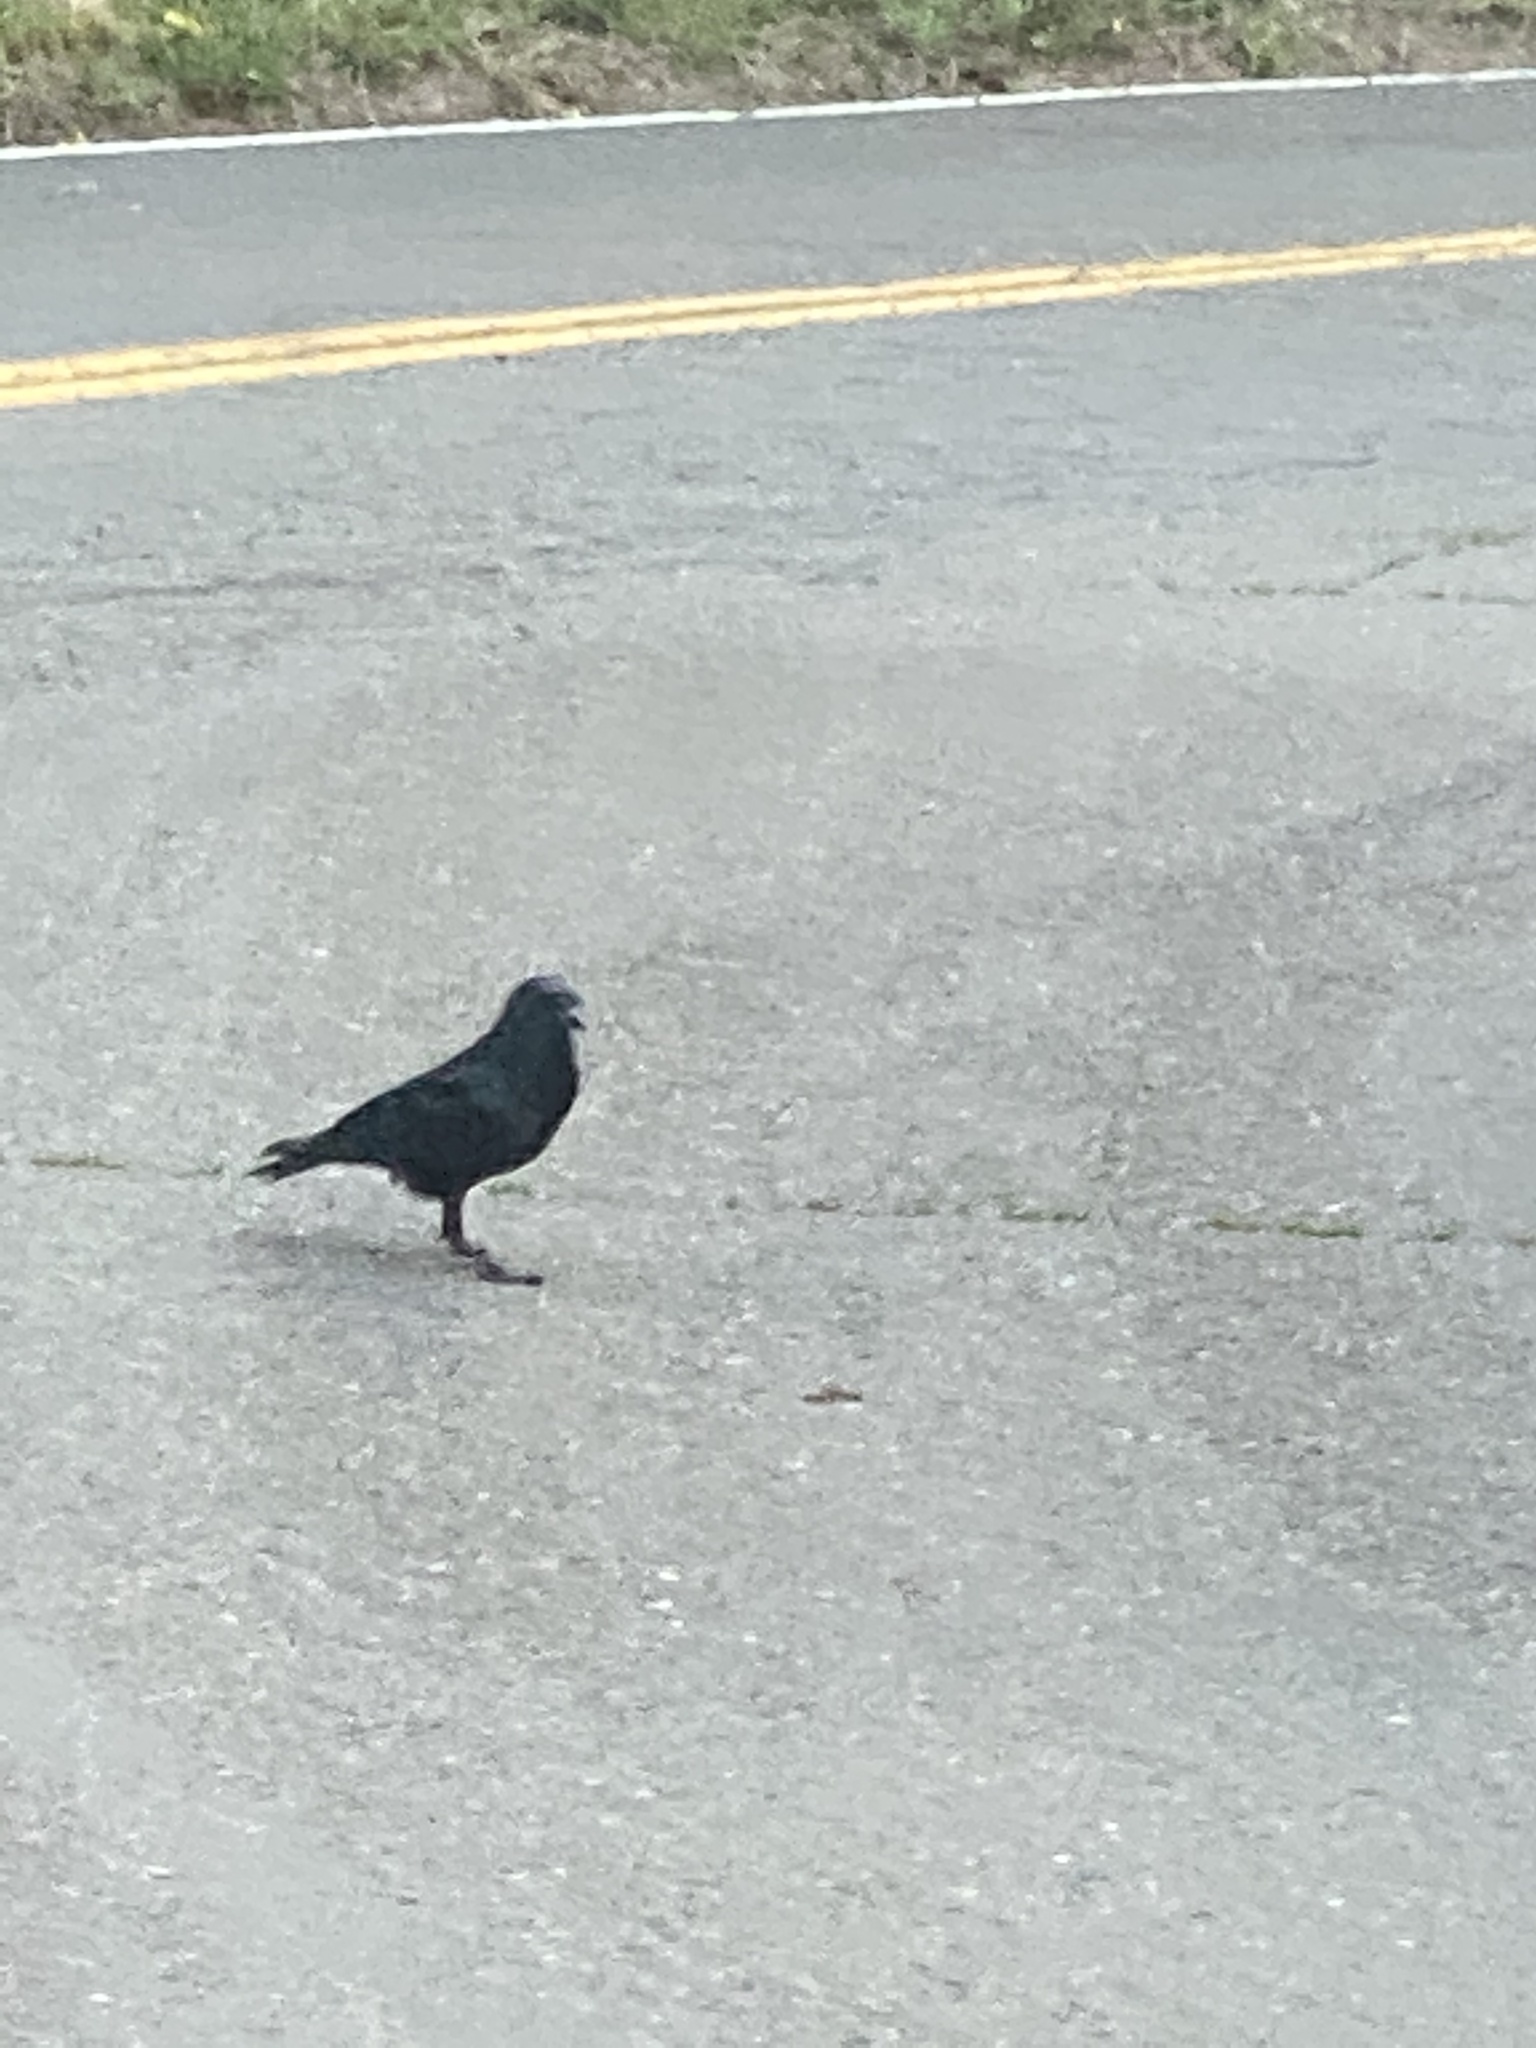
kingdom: Animalia
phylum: Chordata
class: Aves
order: Passeriformes
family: Corvidae
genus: Corvus
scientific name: Corvus brachyrhynchos
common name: American crow
